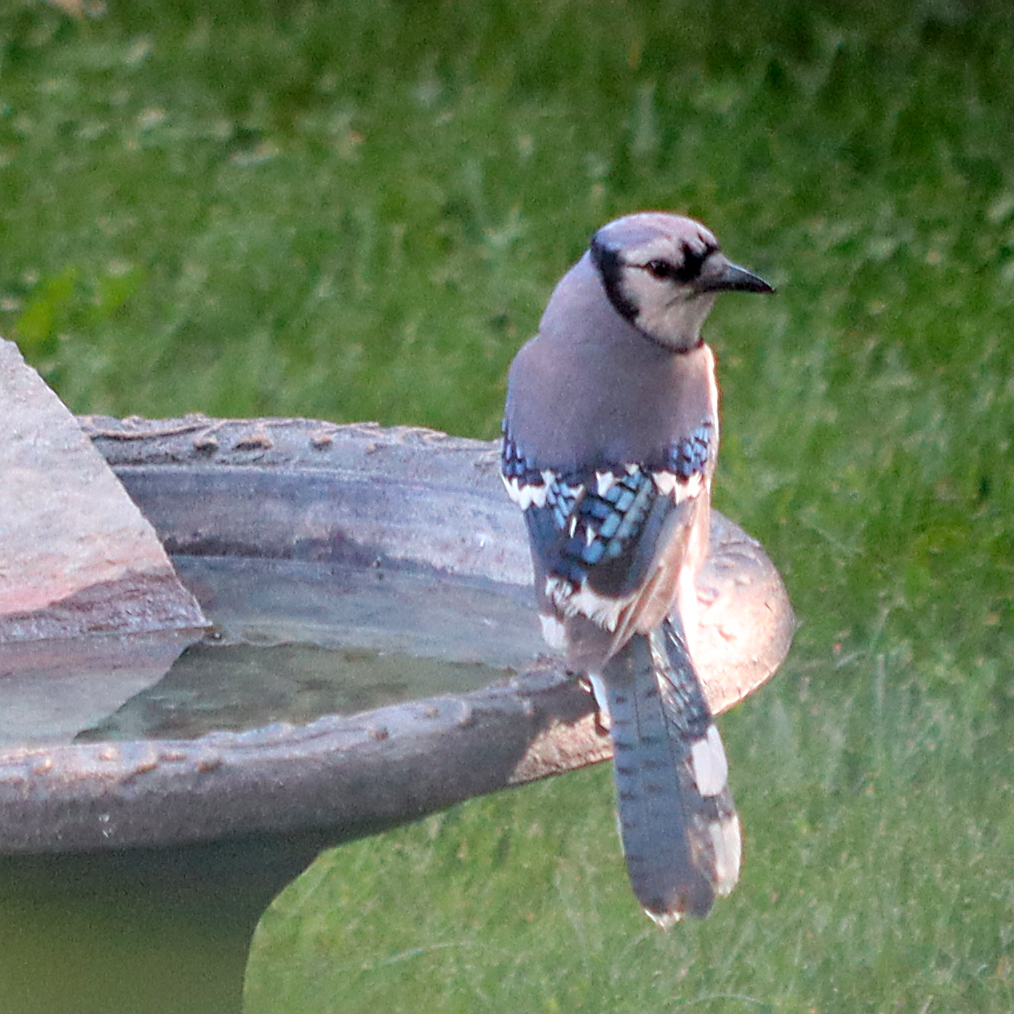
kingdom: Animalia
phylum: Chordata
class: Aves
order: Passeriformes
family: Corvidae
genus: Cyanocitta
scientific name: Cyanocitta cristata
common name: Blue jay
